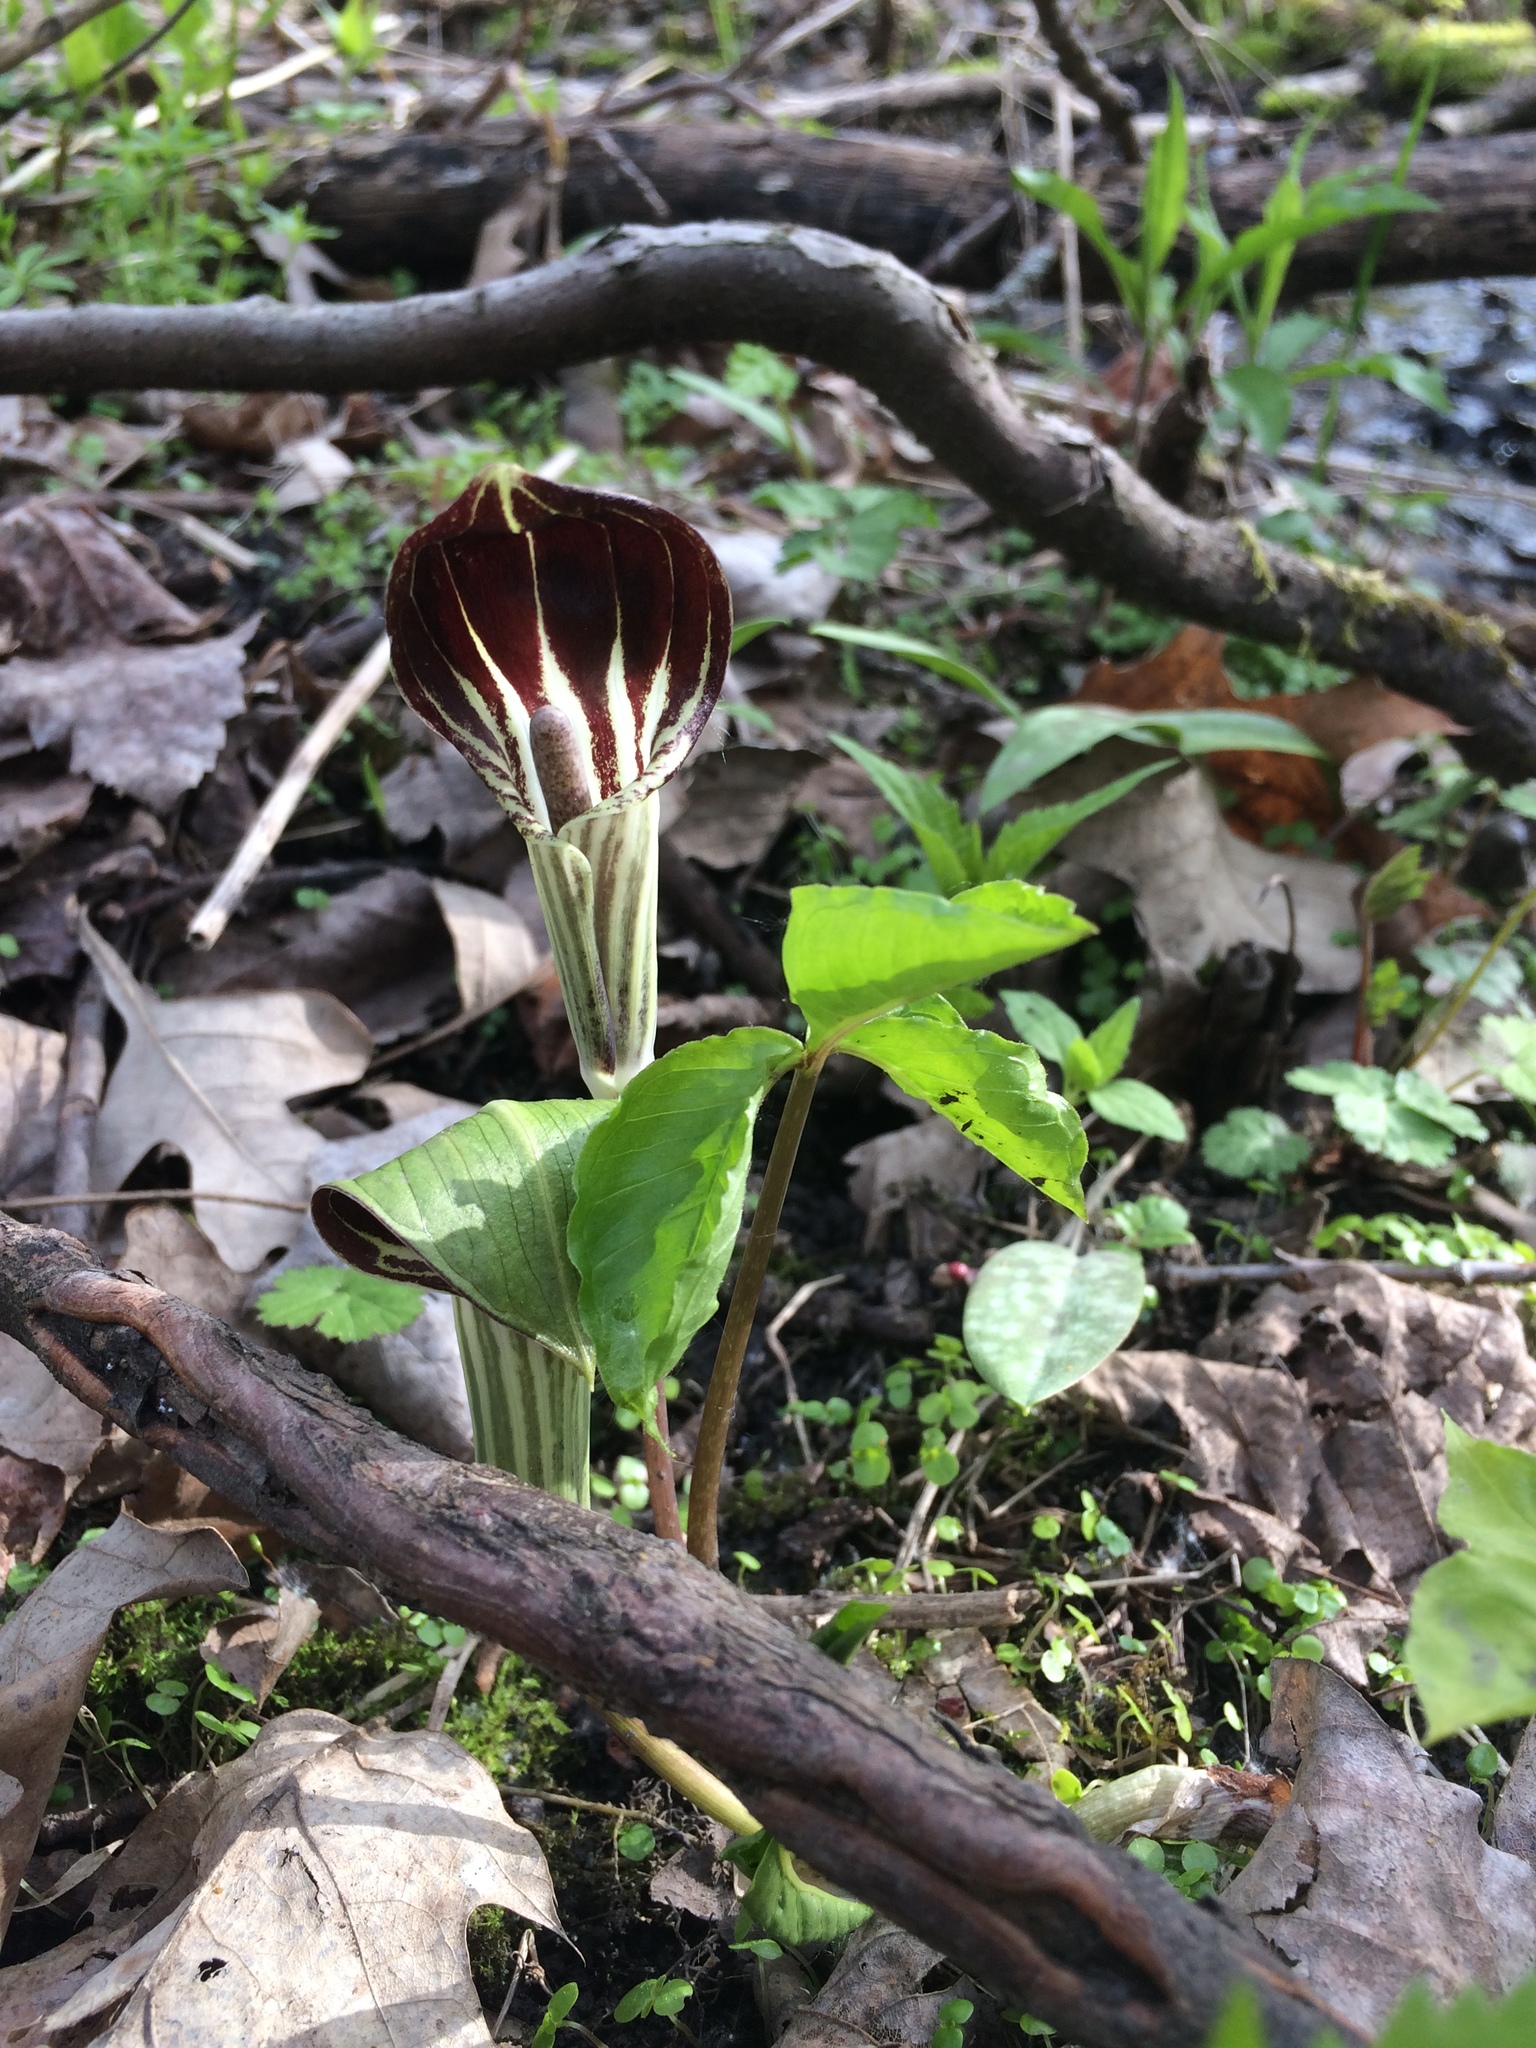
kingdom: Plantae
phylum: Tracheophyta
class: Liliopsida
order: Alismatales
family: Araceae
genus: Arisaema
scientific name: Arisaema triphyllum
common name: Jack-in-the-pulpit
